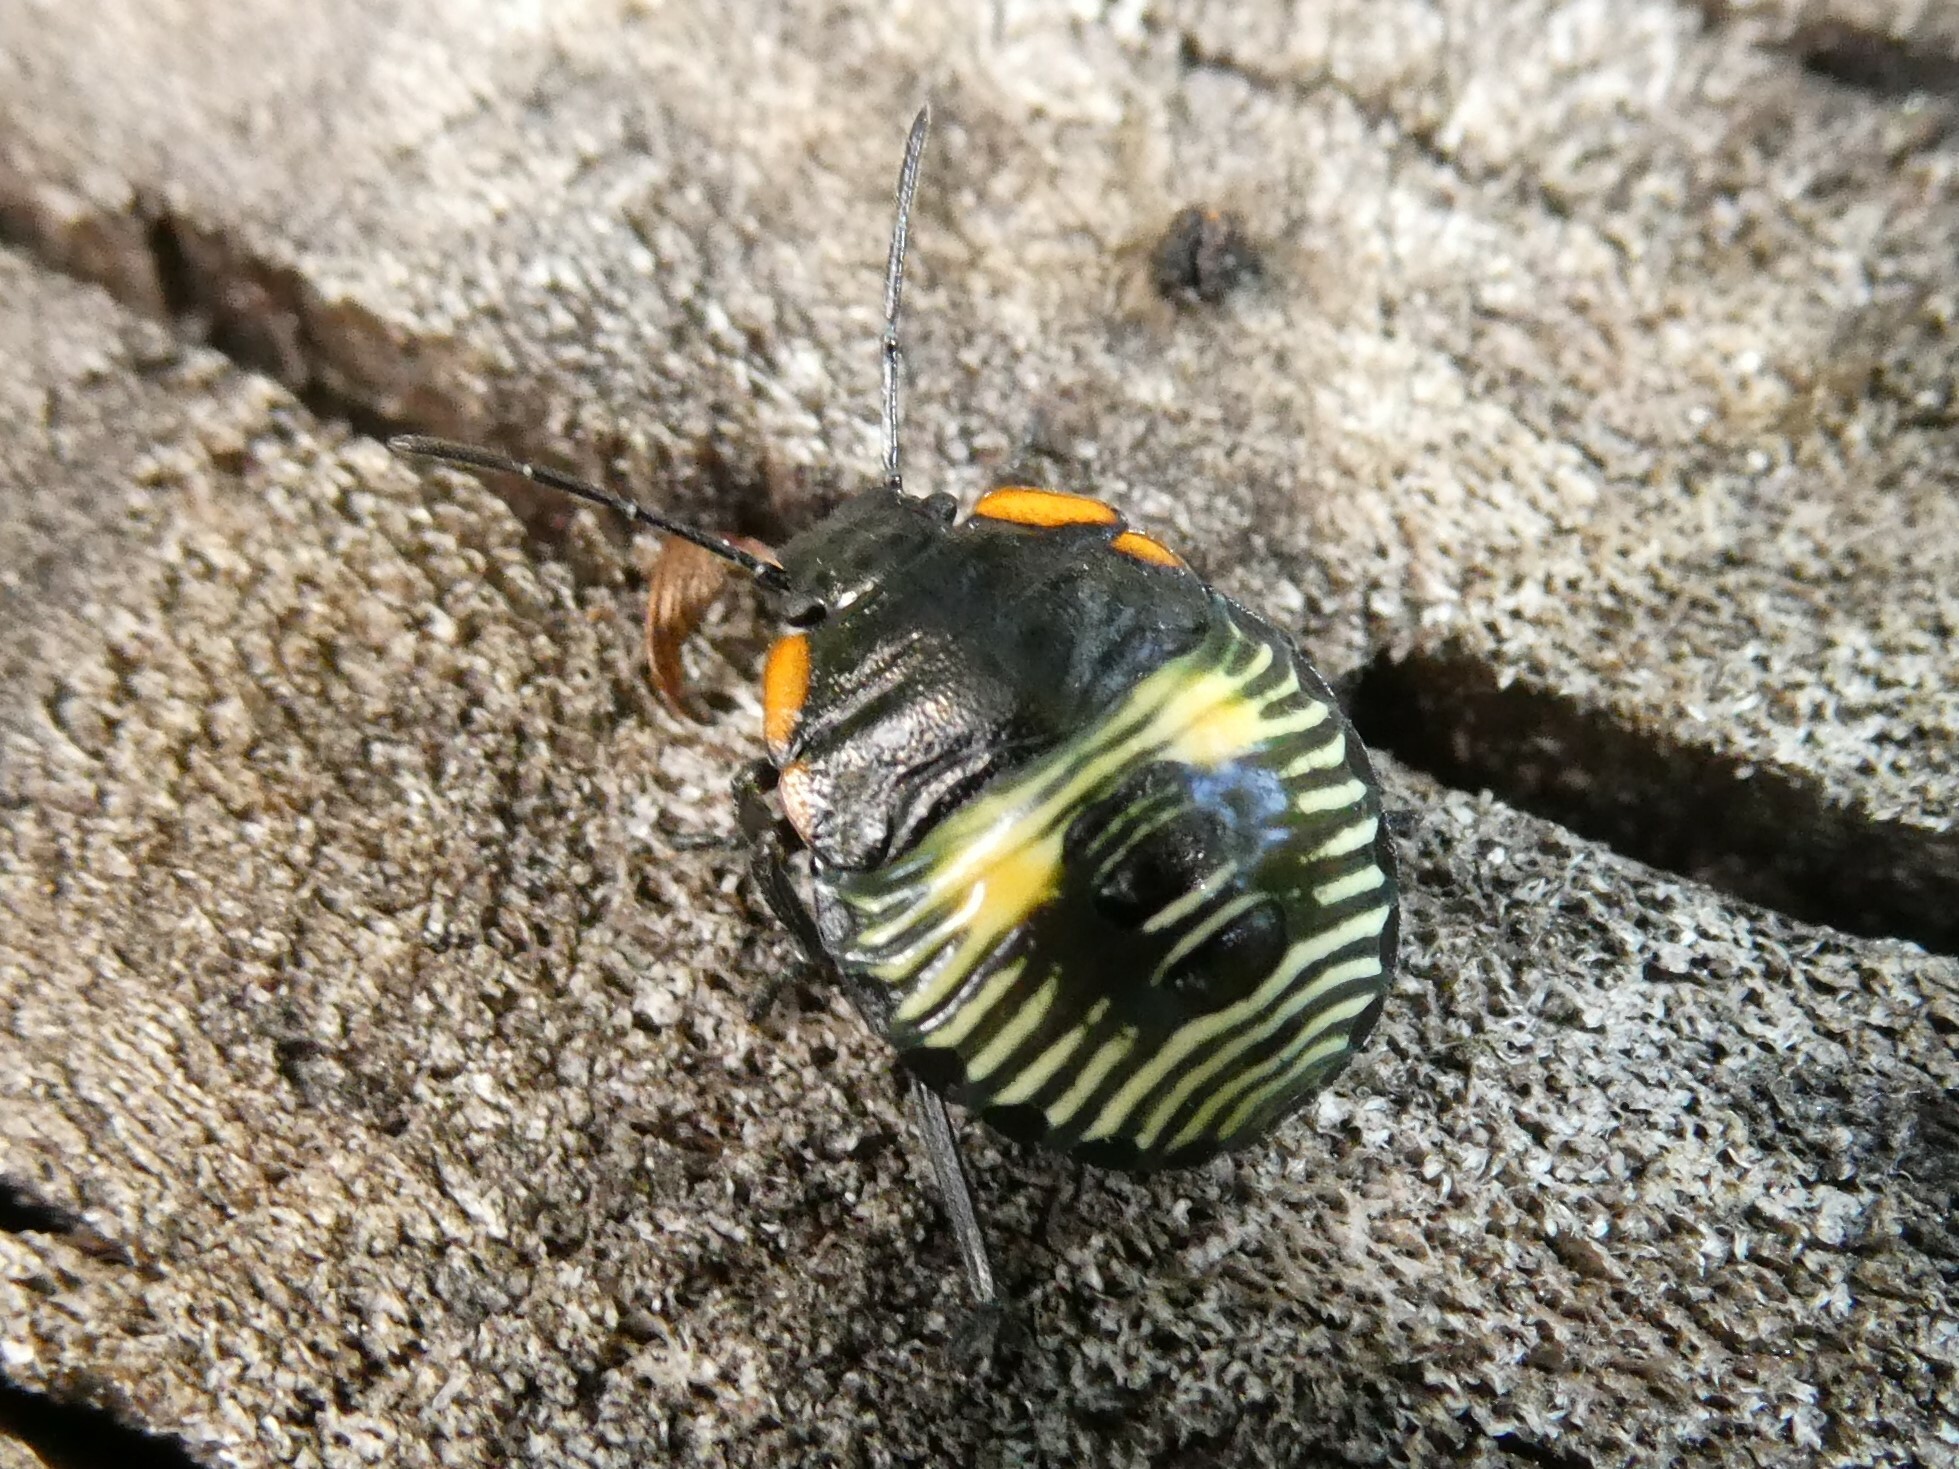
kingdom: Animalia
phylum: Arthropoda
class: Insecta
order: Hemiptera
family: Pentatomidae
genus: Chinavia
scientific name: Chinavia hilaris
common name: Green stink bug
